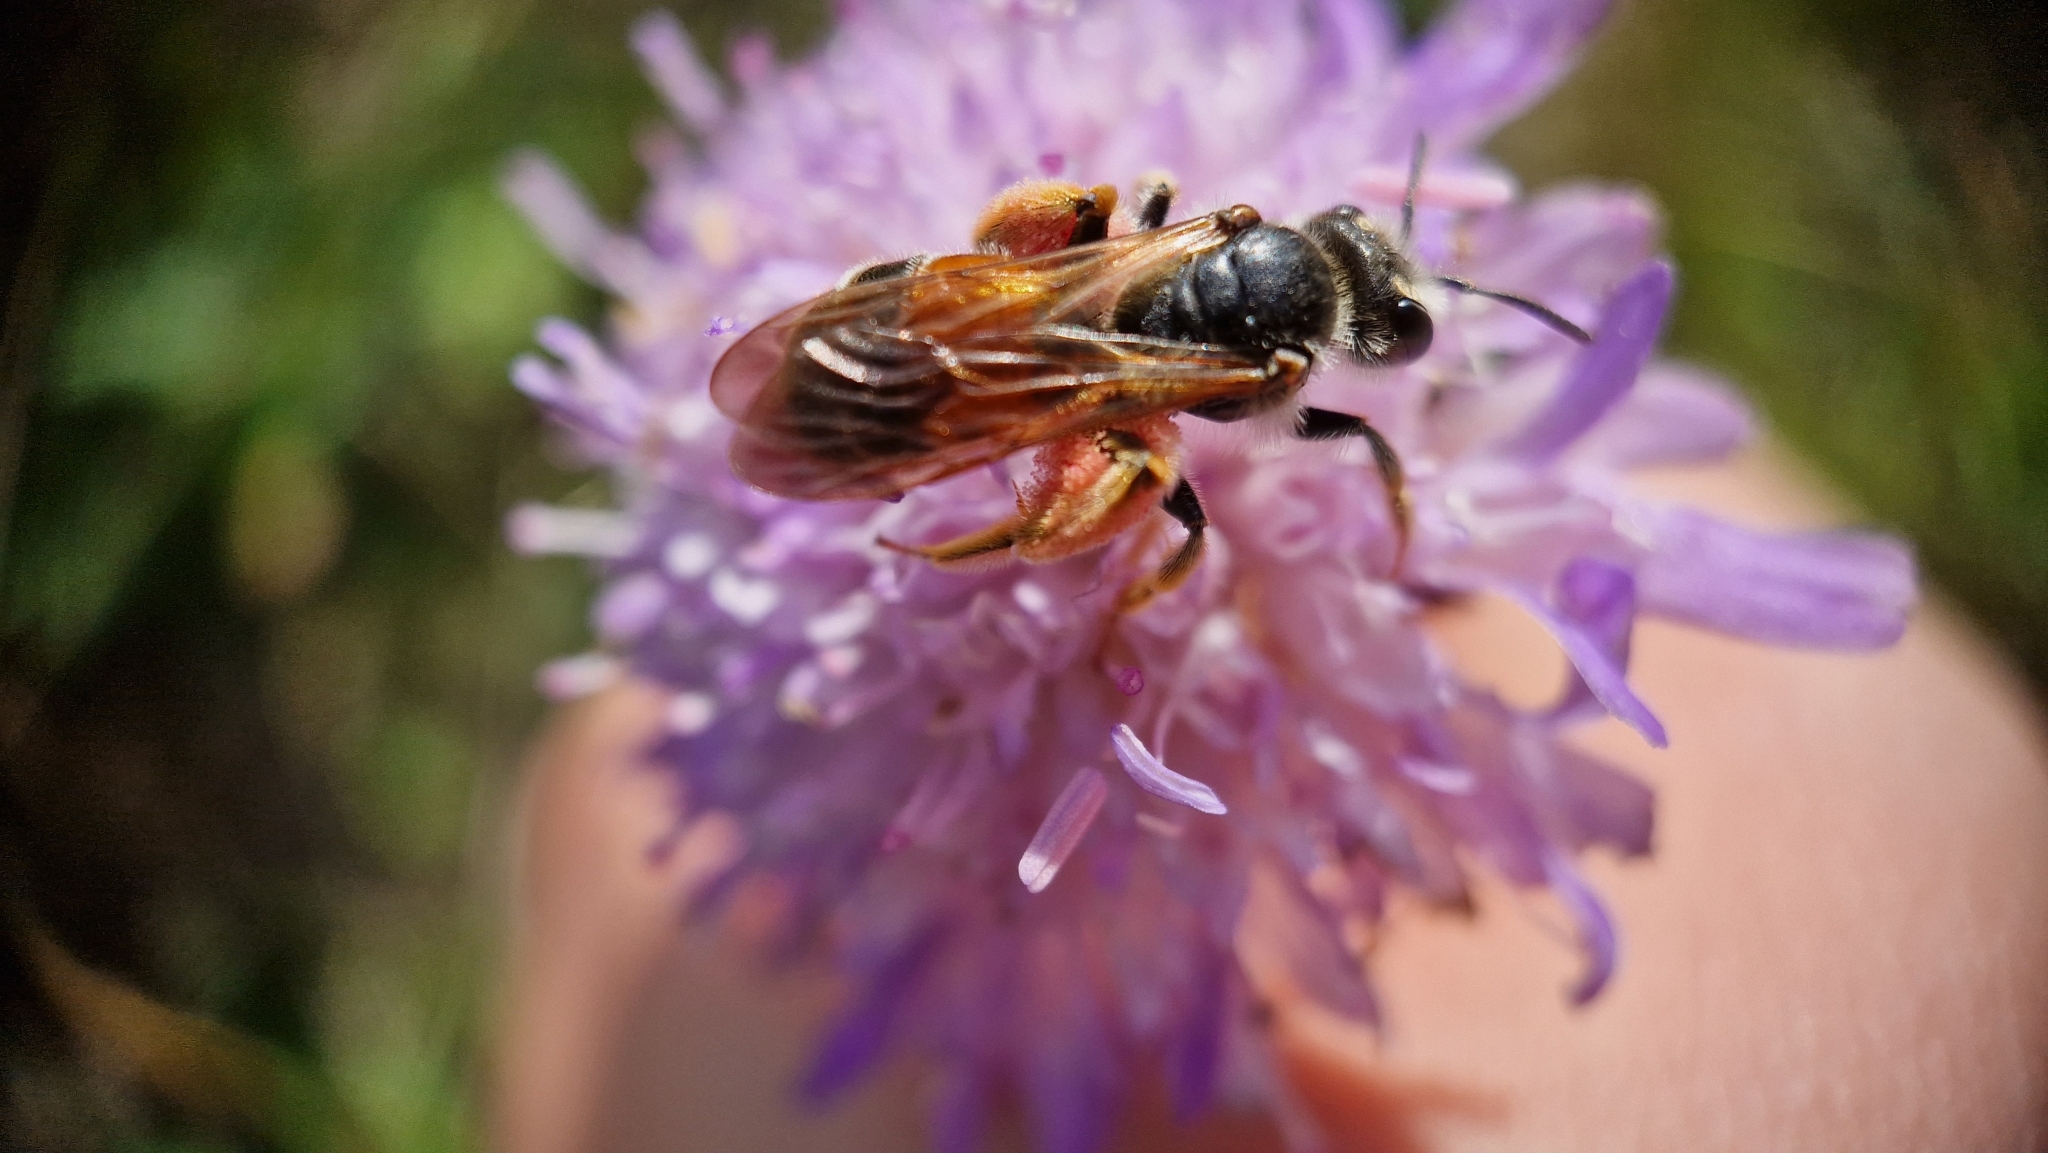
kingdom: Animalia
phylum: Arthropoda
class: Insecta
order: Hymenoptera
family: Andrenidae
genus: Andrena
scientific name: Andrena hattorfiana
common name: Large scabious mining bee
